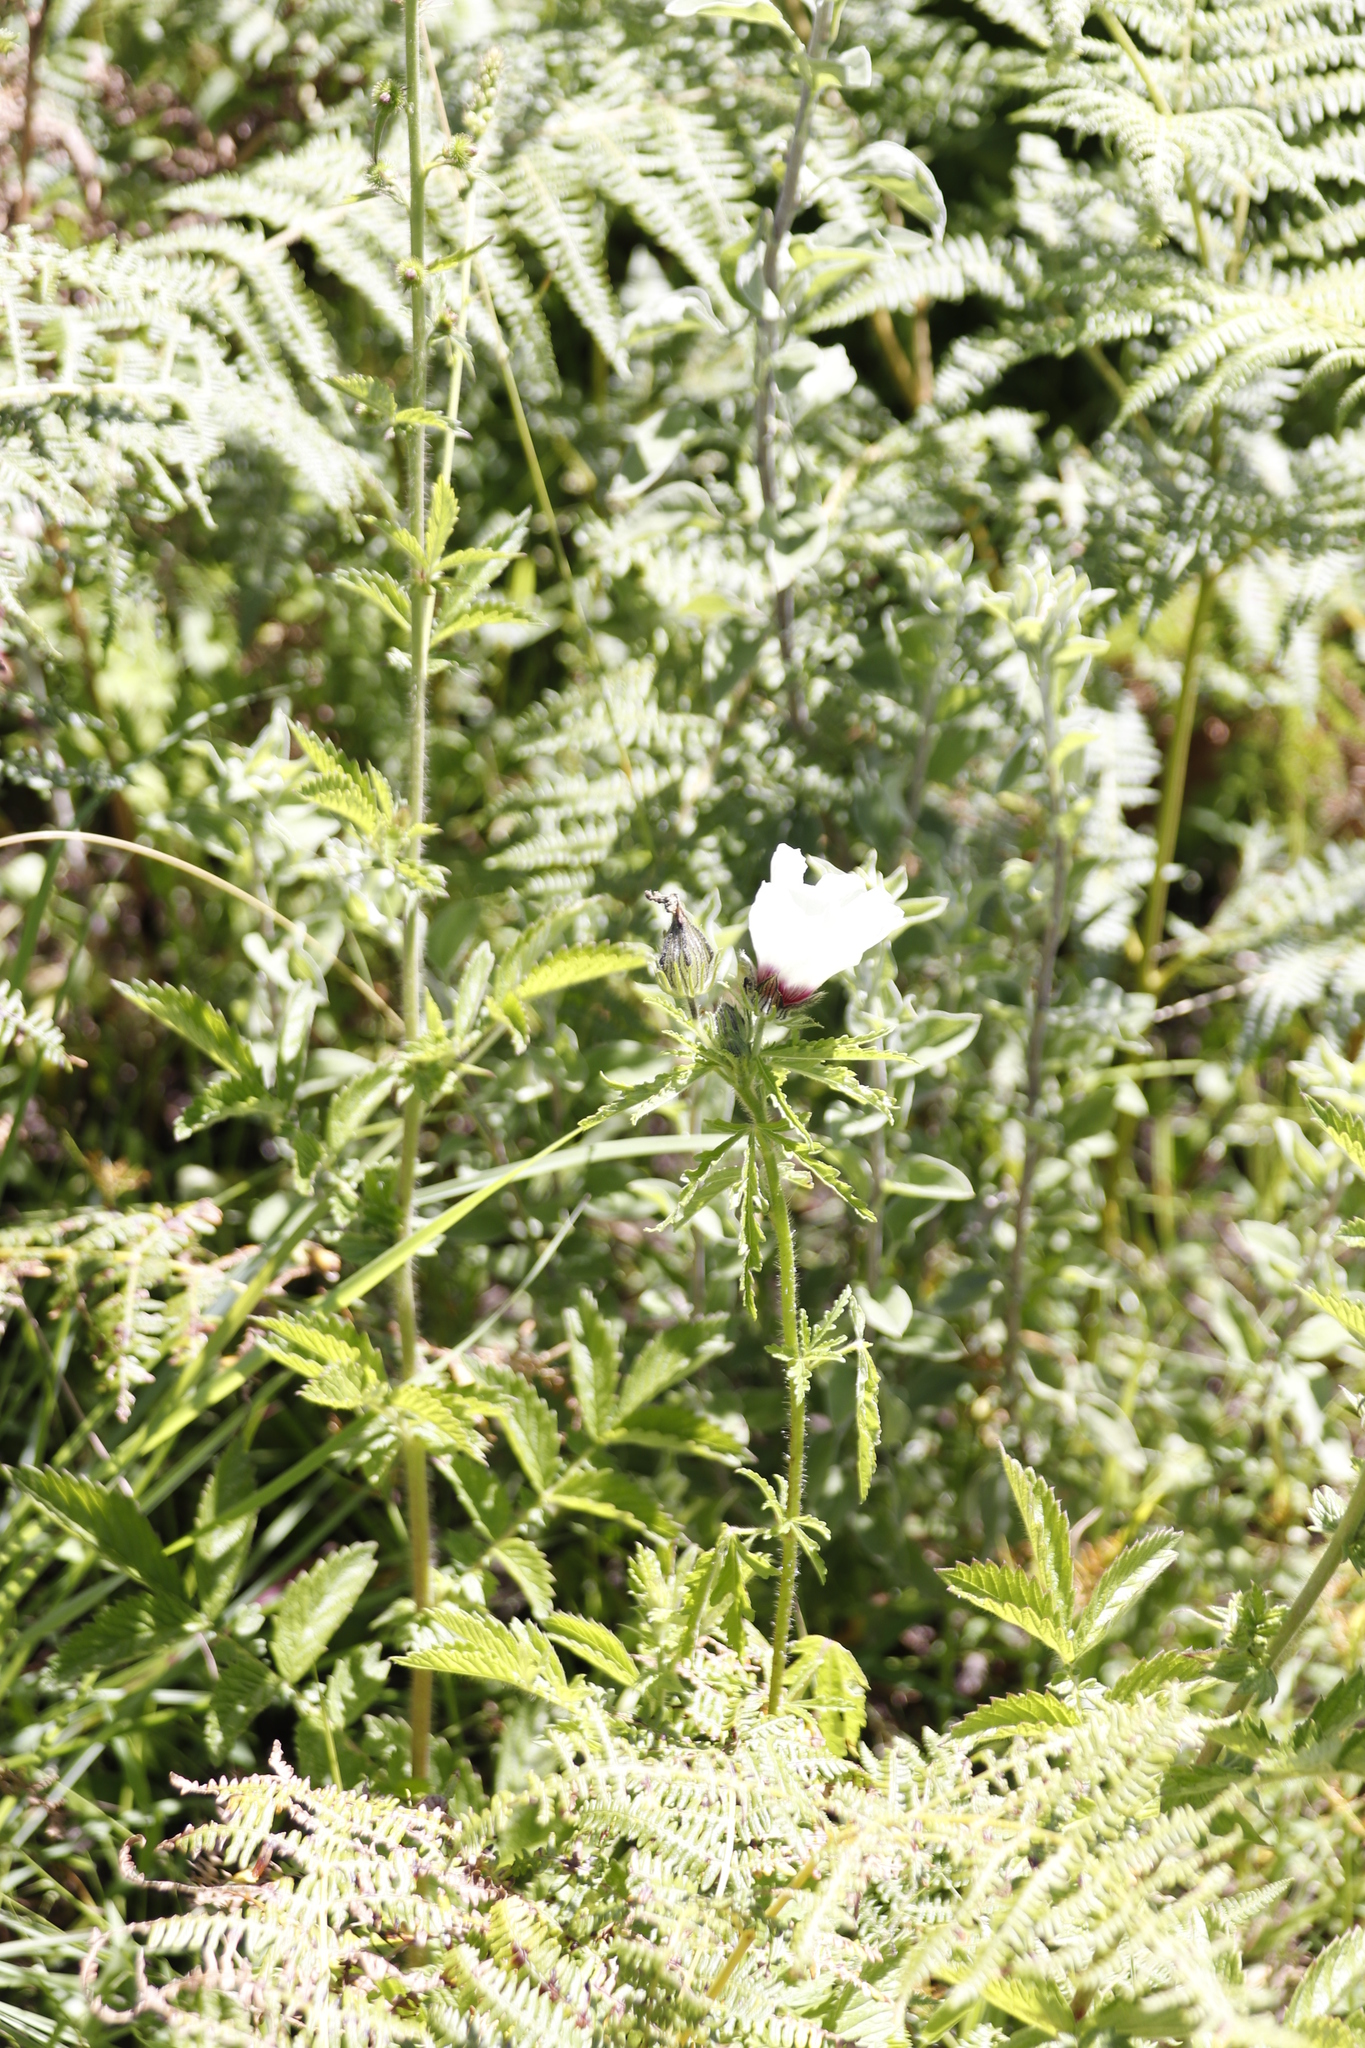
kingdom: Plantae
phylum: Tracheophyta
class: Magnoliopsida
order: Malvales
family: Malvaceae
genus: Hibiscus
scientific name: Hibiscus trionum
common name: Bladder ketmia
